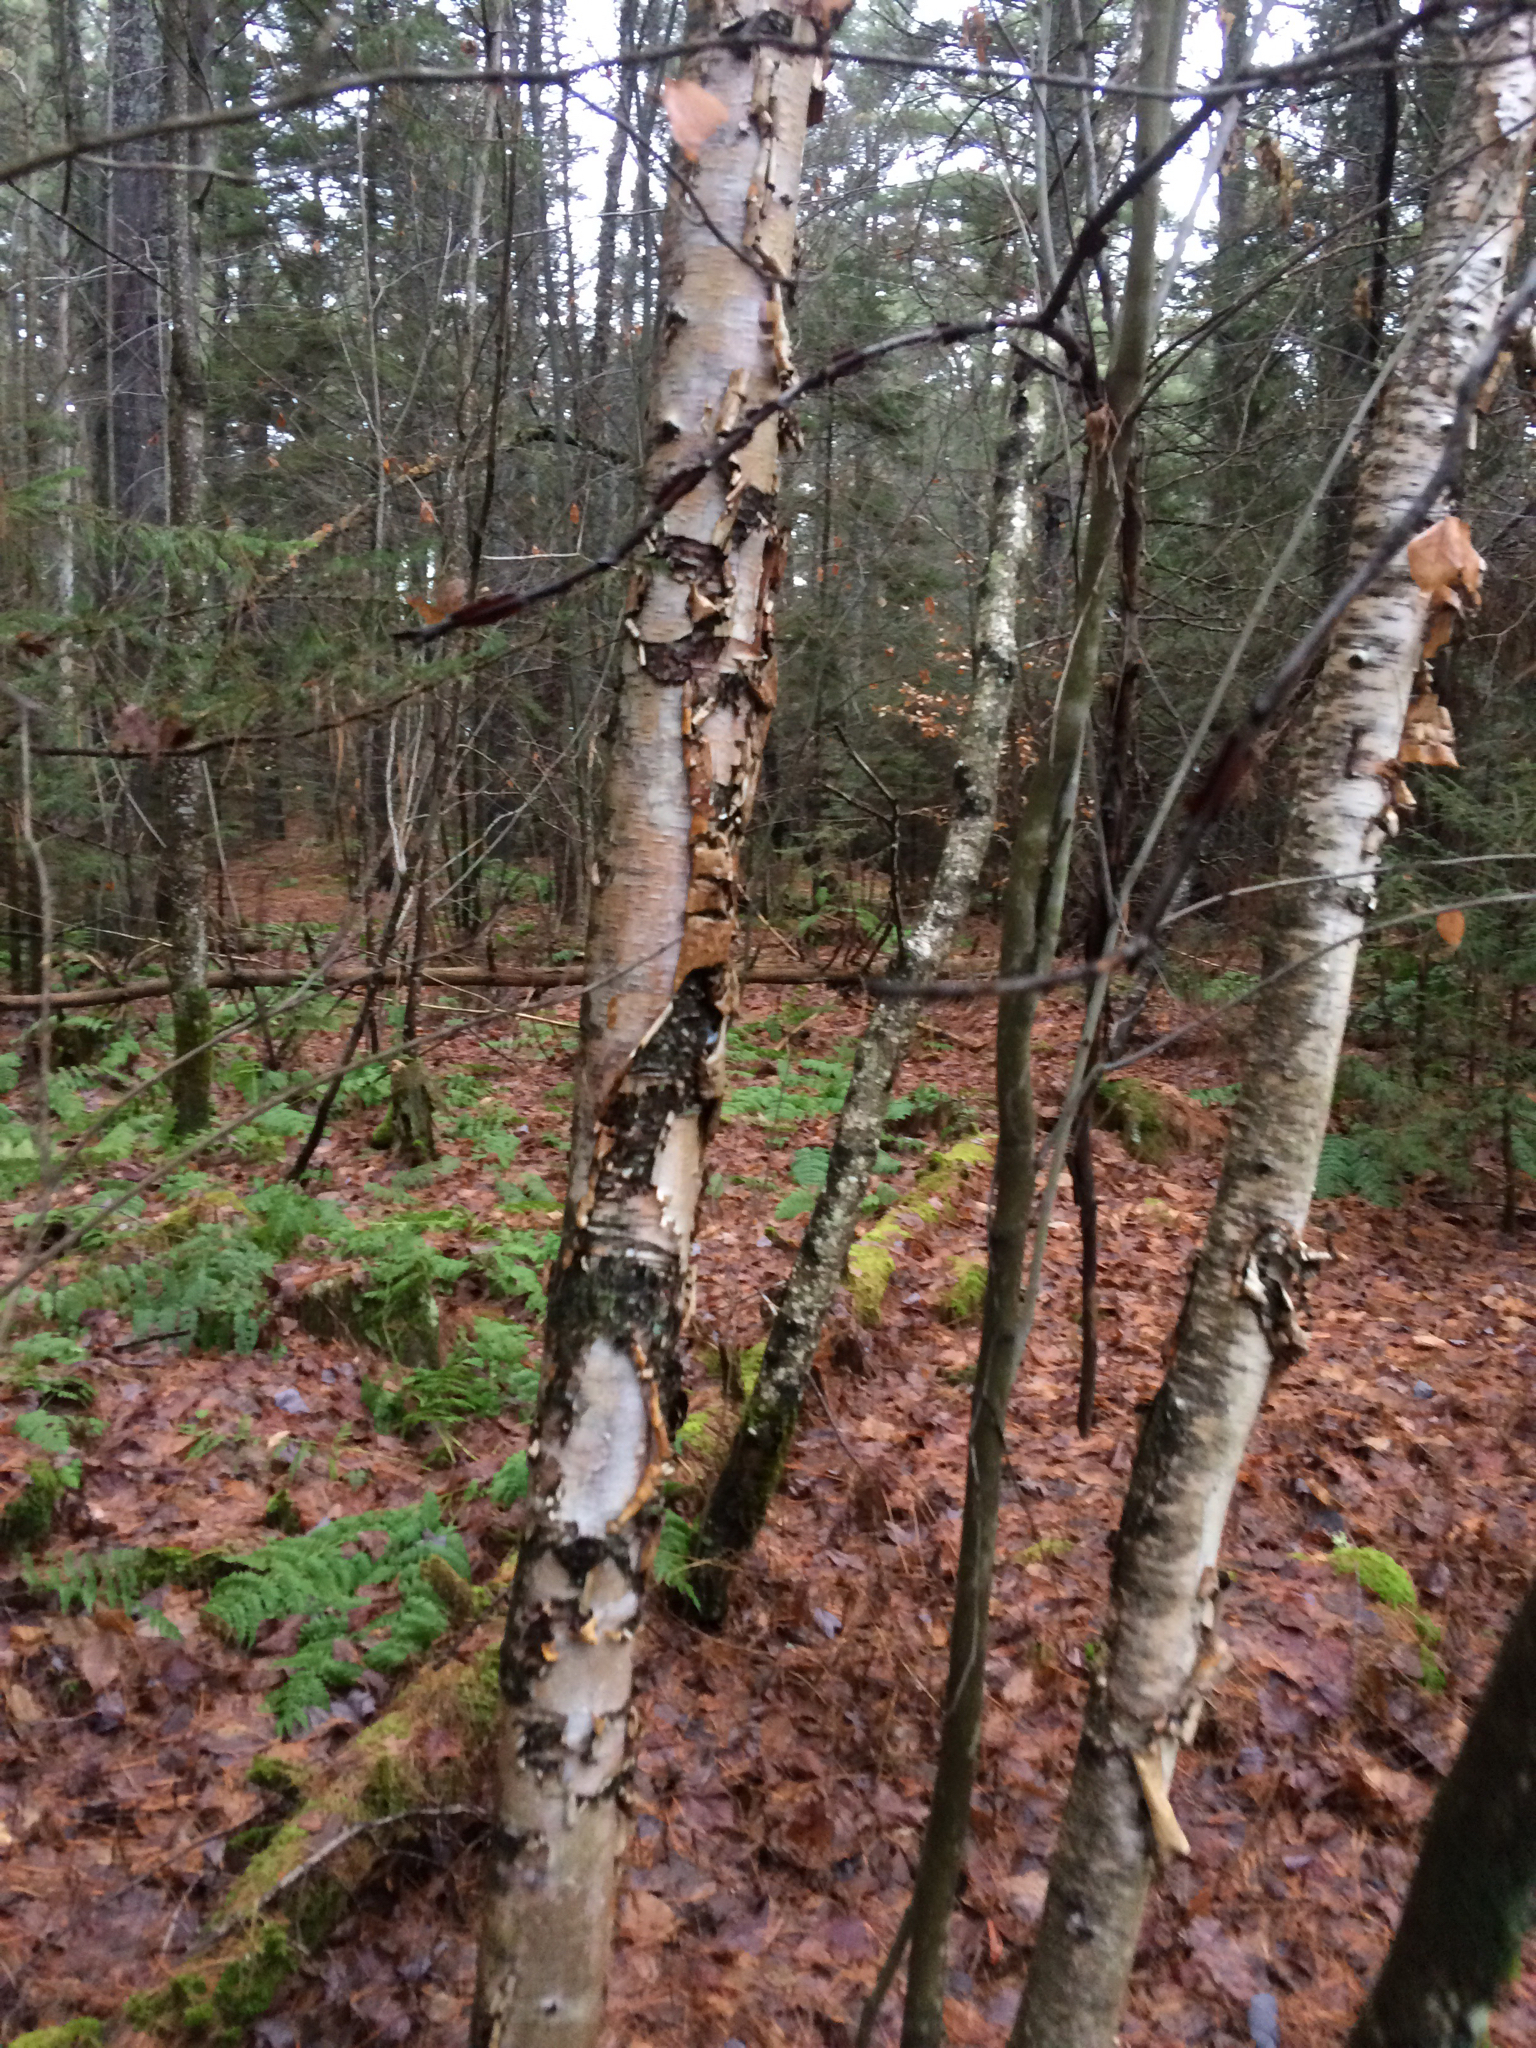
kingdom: Plantae
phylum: Tracheophyta
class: Magnoliopsida
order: Fagales
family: Betulaceae
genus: Betula
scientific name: Betula papyrifera
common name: Paper birch
